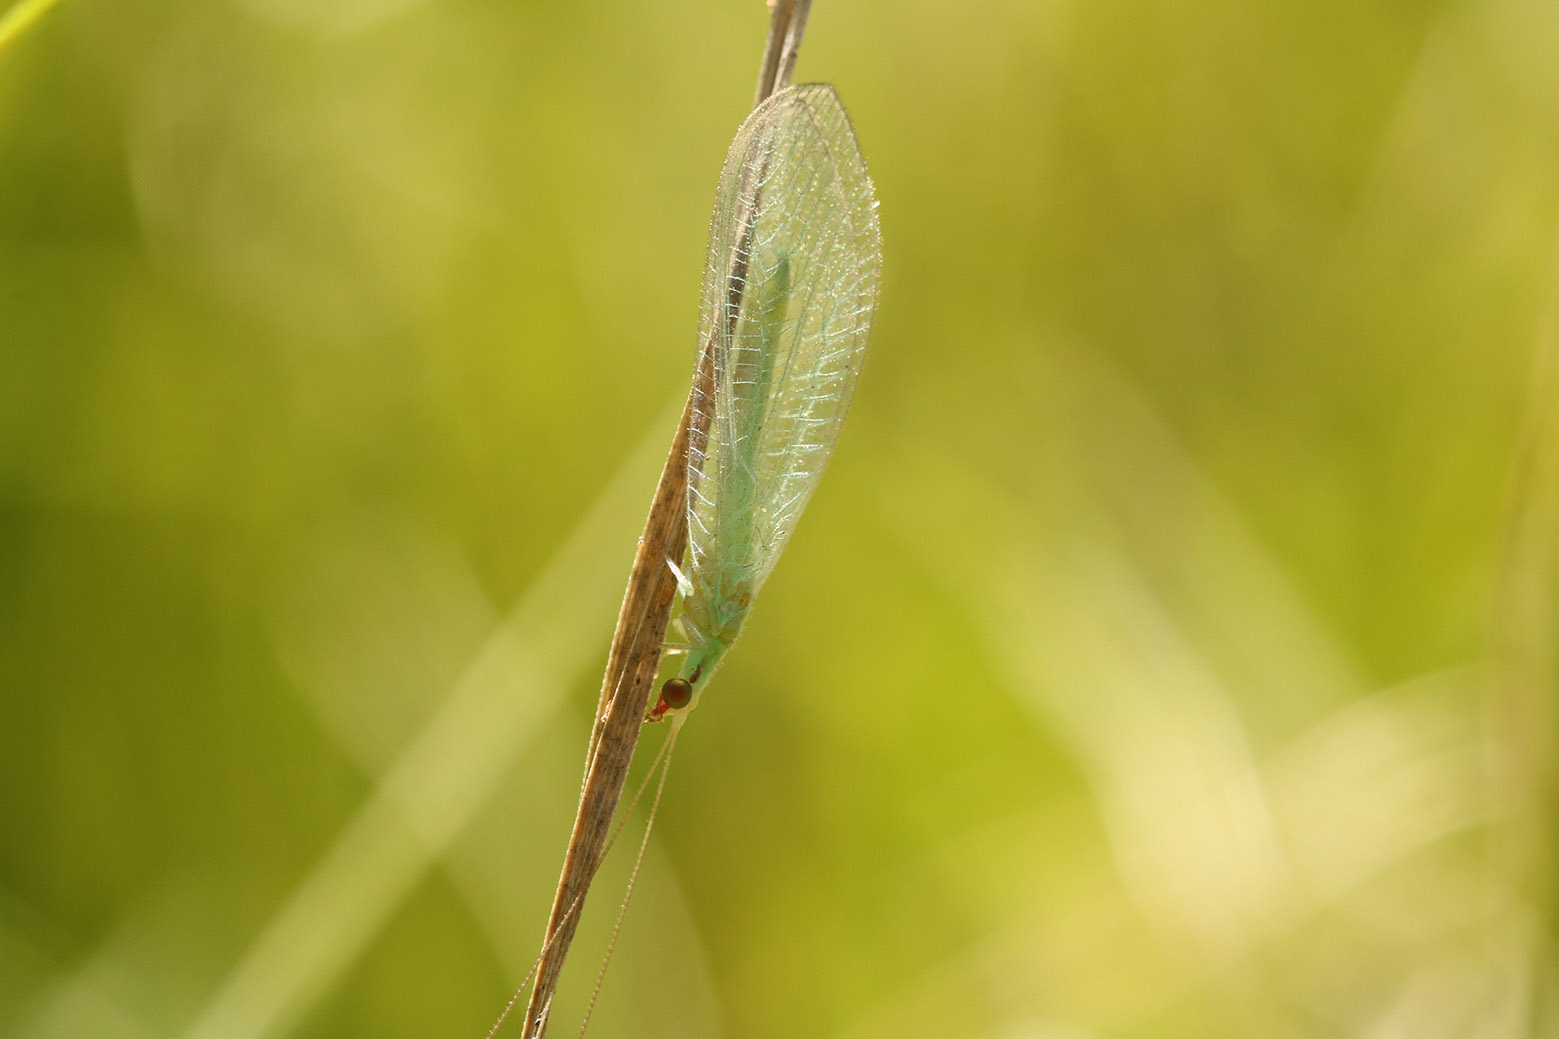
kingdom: Animalia
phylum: Arthropoda
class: Insecta
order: Neuroptera
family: Chrysopidae
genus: Chrysoperla
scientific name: Chrysoperla externa
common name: Green lacewing
